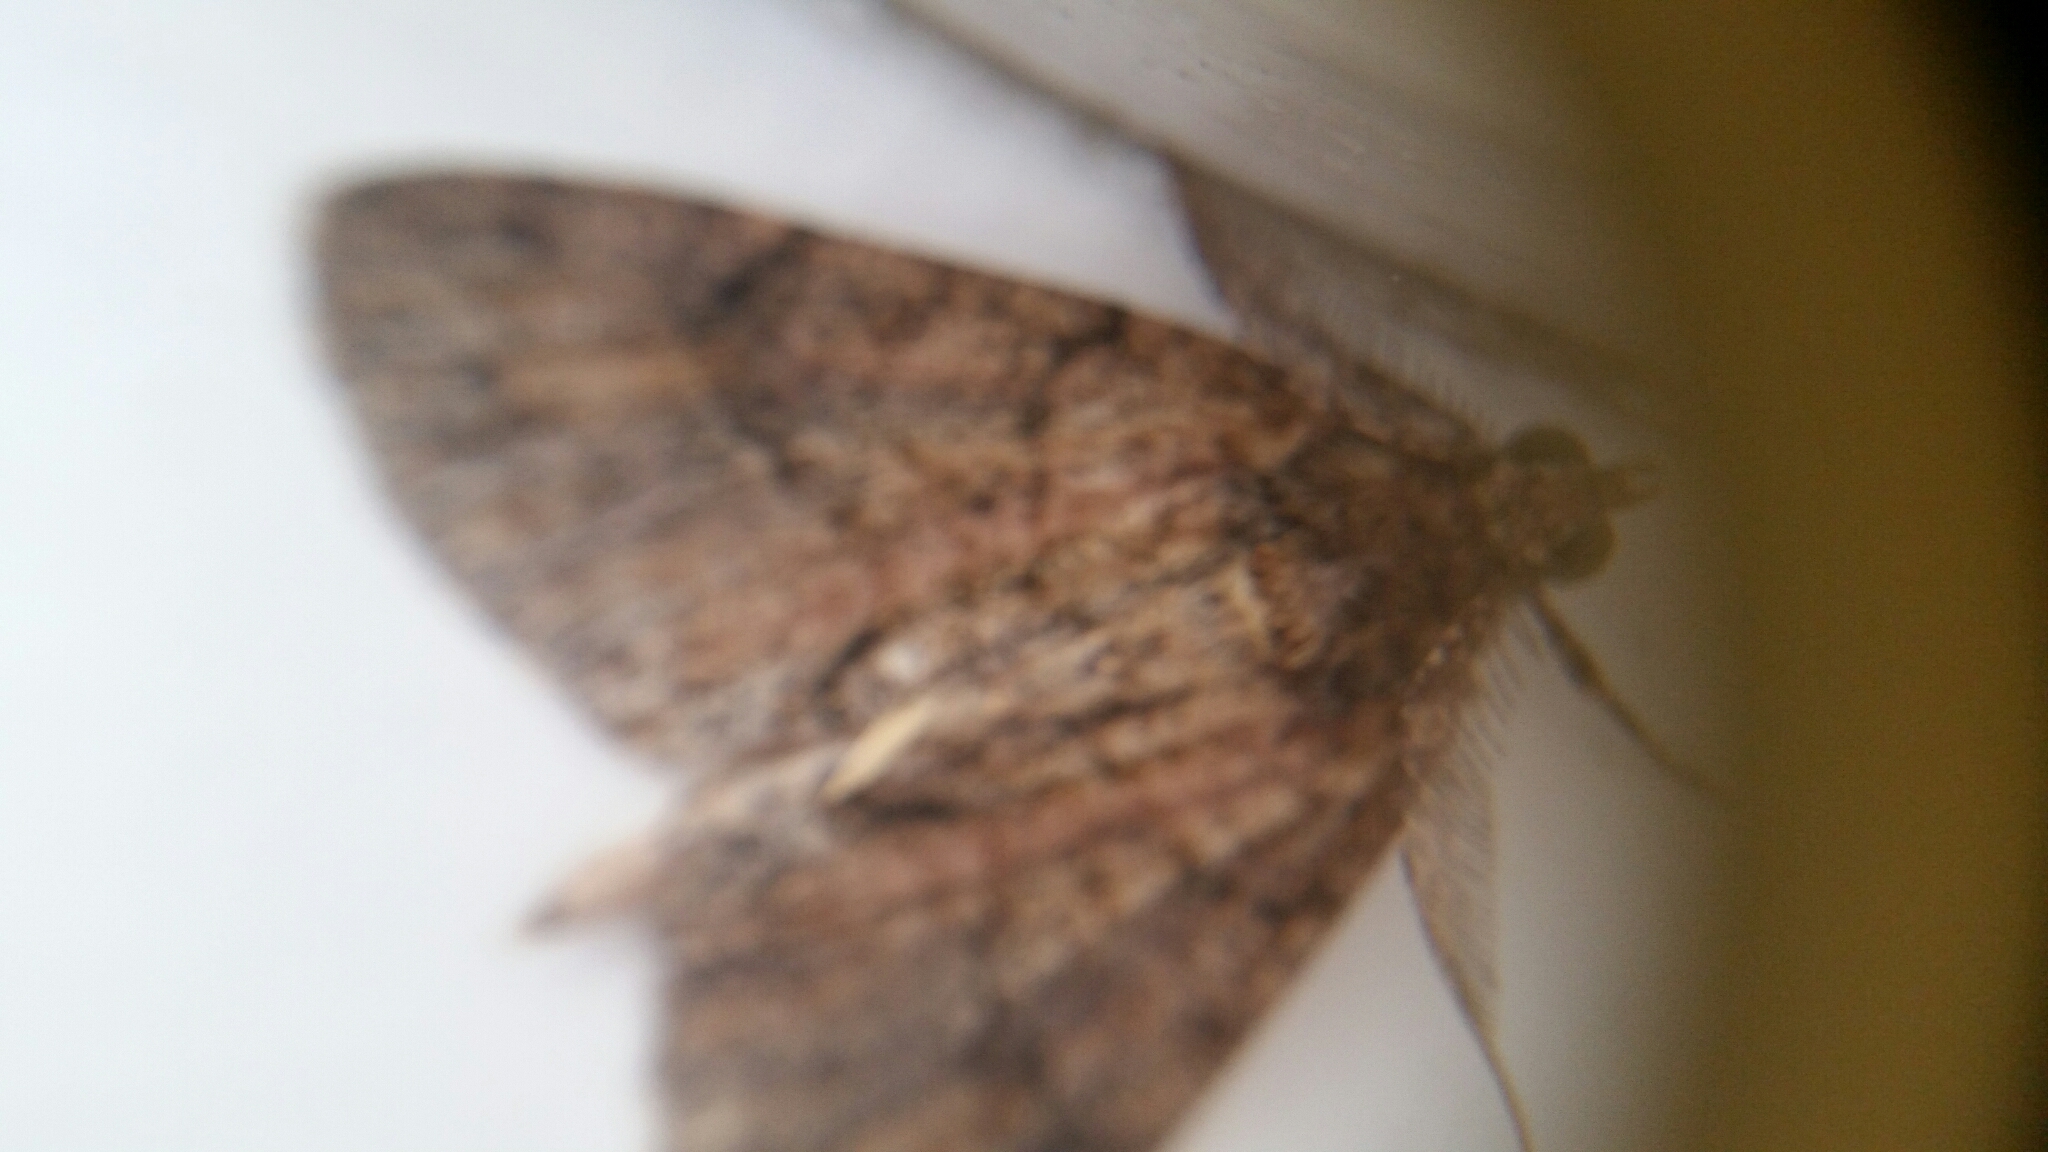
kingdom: Animalia
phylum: Arthropoda
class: Insecta
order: Lepidoptera
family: Geometridae
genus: Pseudocoremia
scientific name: Pseudocoremia suavis
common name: Common forest looper
